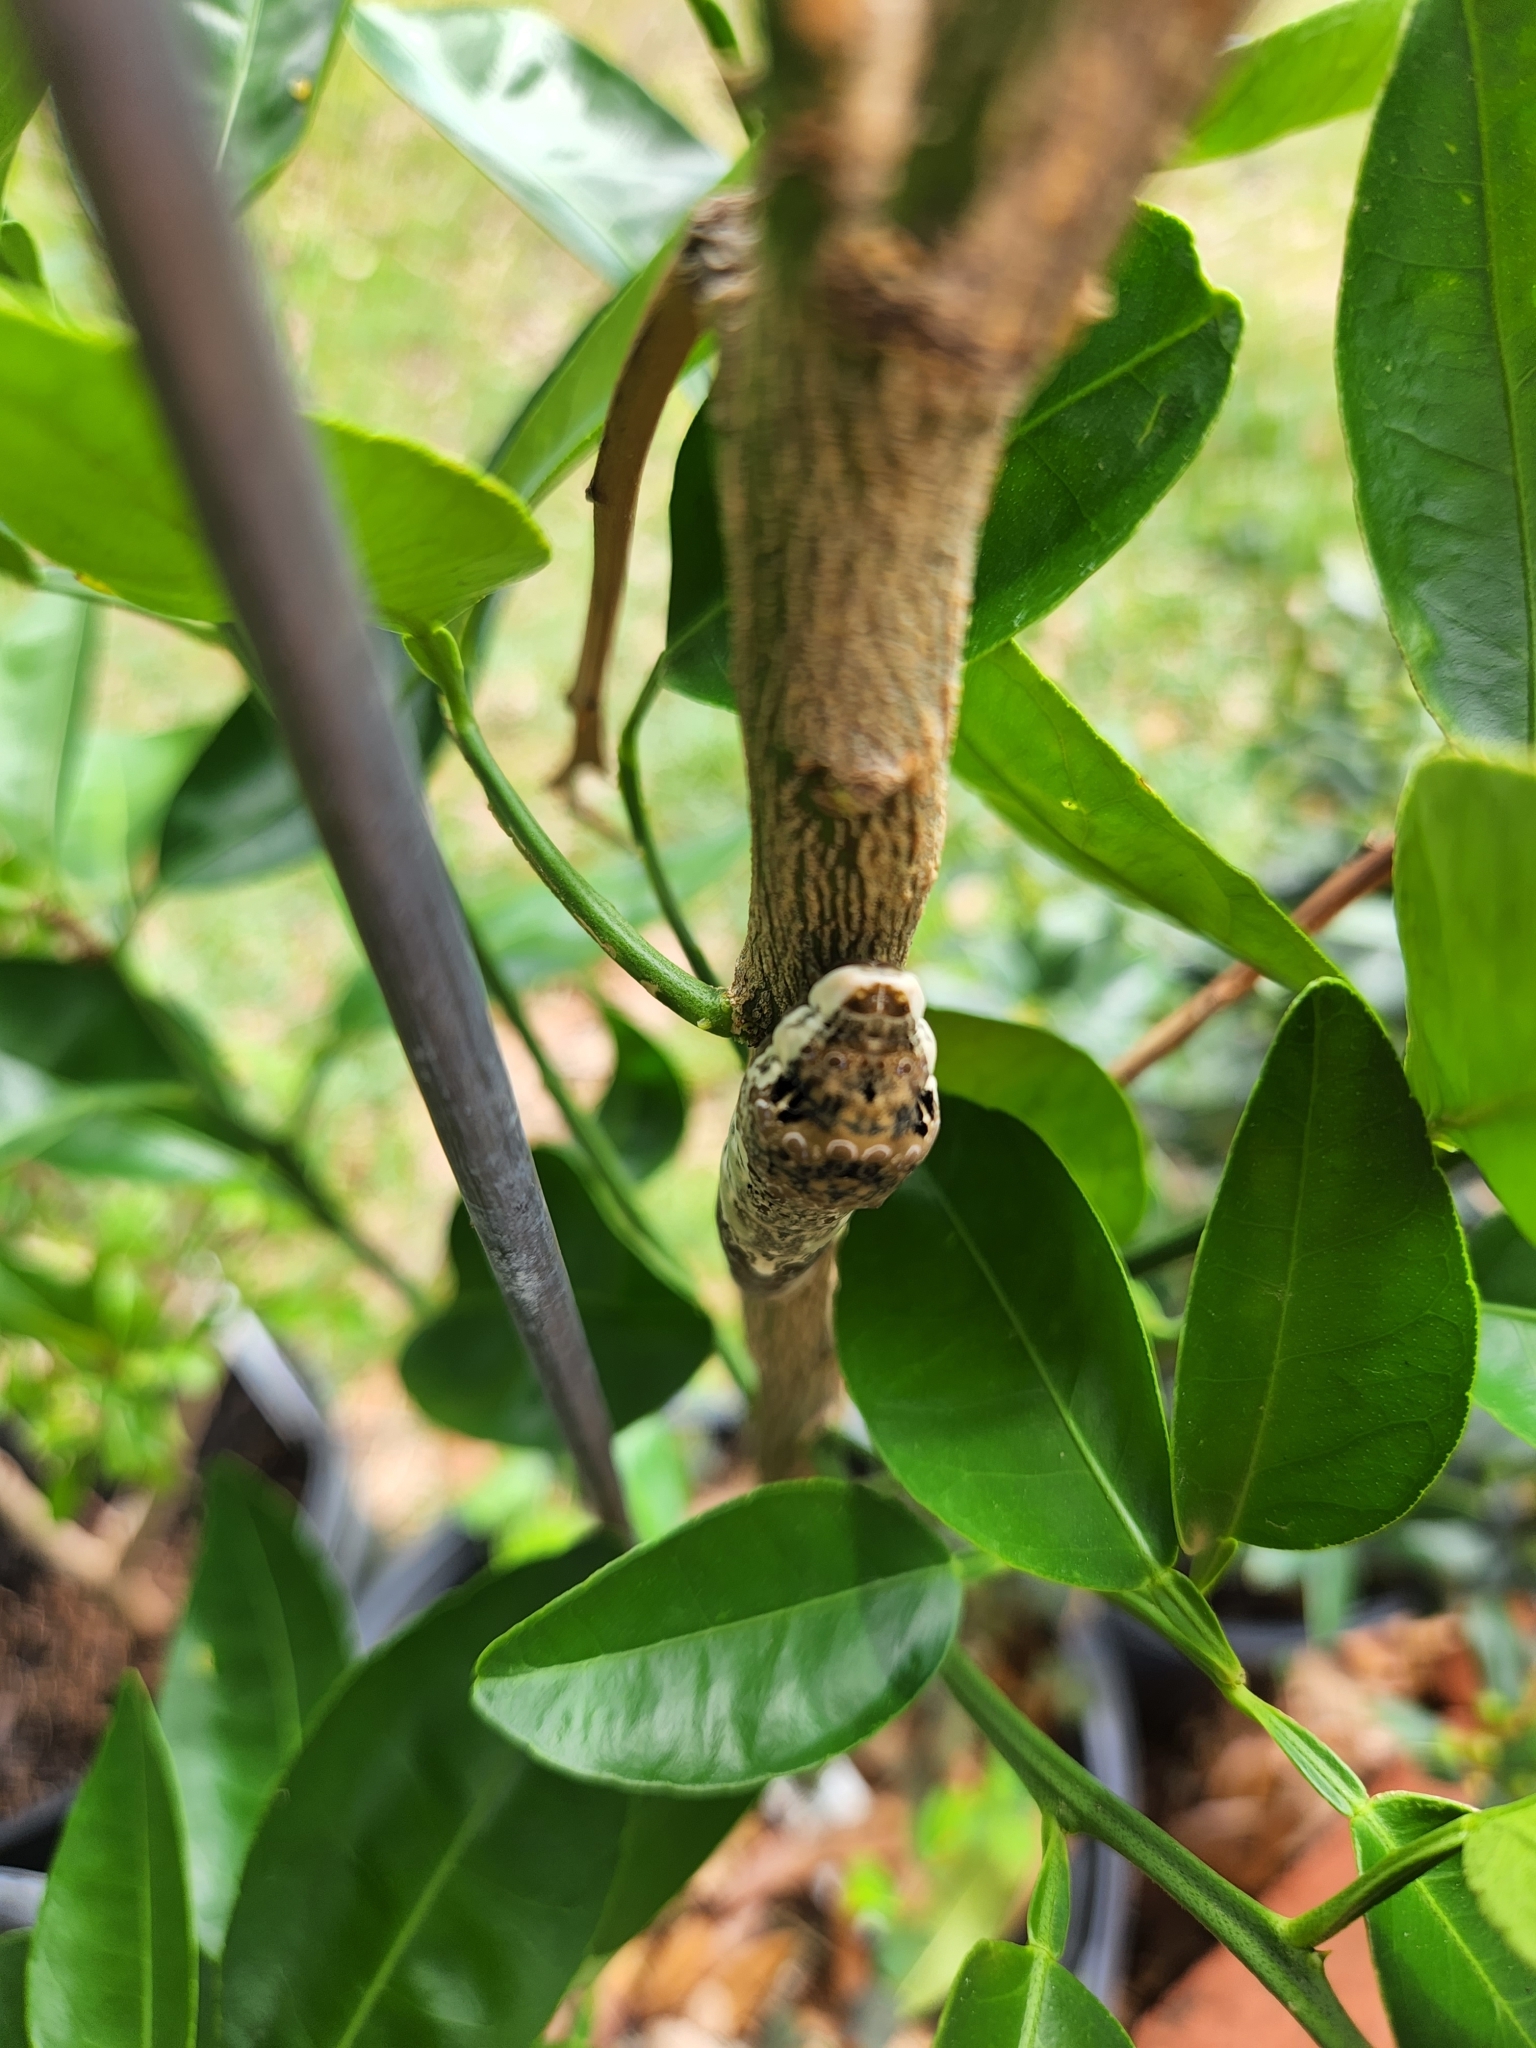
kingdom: Animalia
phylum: Arthropoda
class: Insecta
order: Lepidoptera
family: Papilionidae
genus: Papilio
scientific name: Papilio cresphontes
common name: Giant swallowtail
